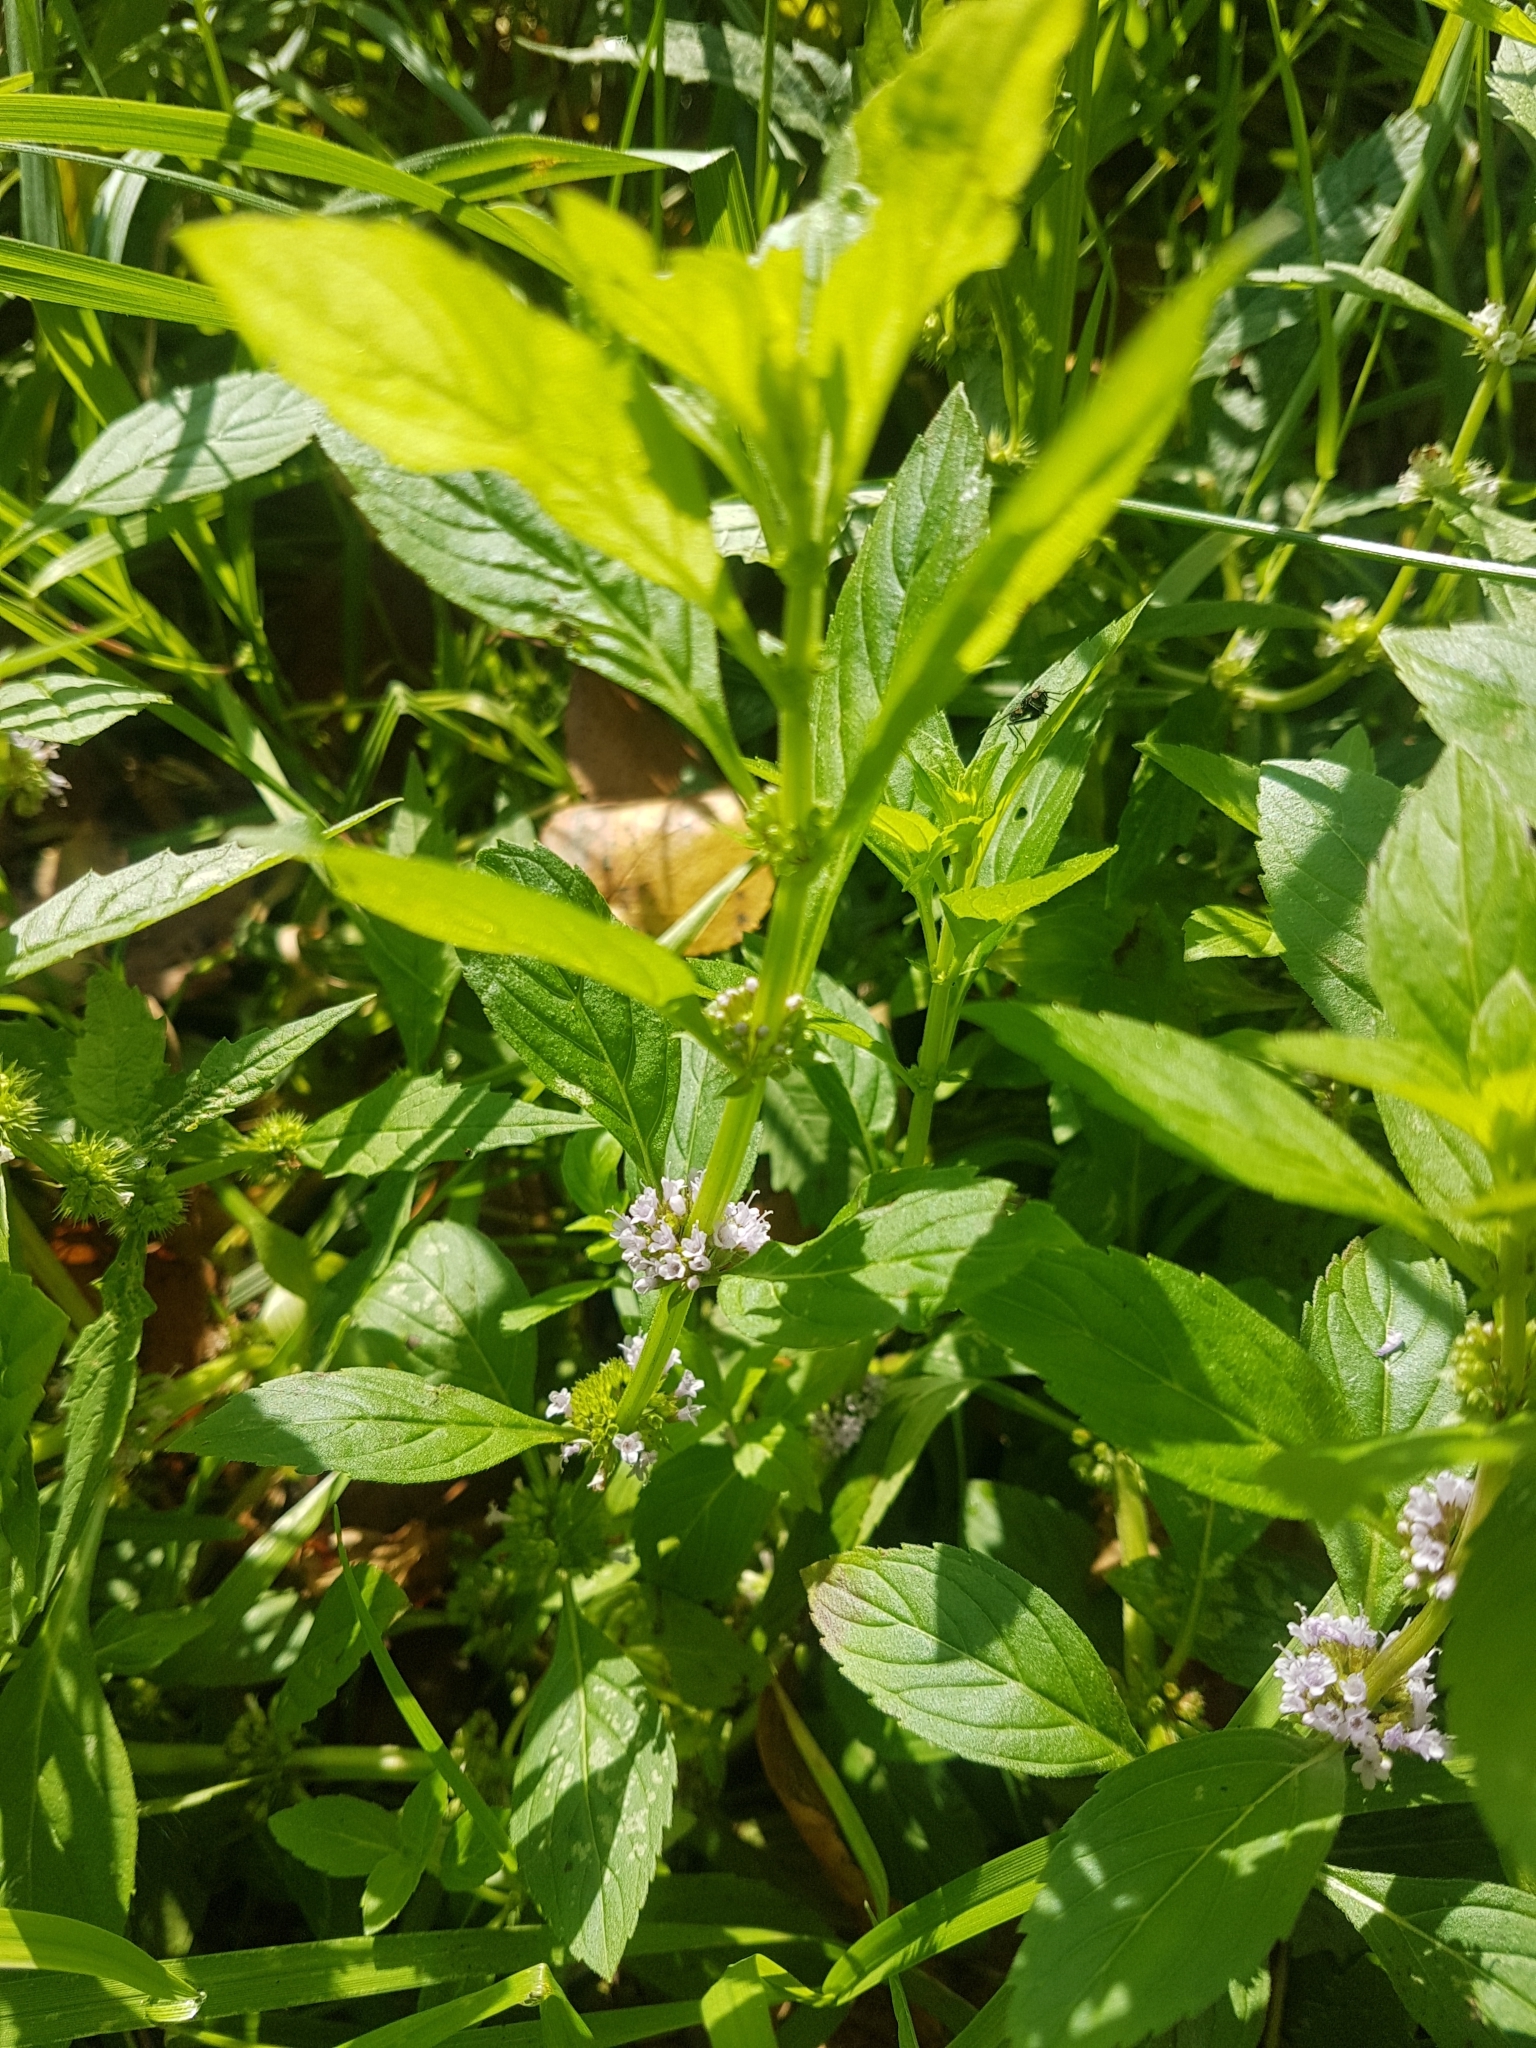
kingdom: Plantae
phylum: Tracheophyta
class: Magnoliopsida
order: Lamiales
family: Lamiaceae
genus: Mentha
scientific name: Mentha arvensis
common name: Corn mint
